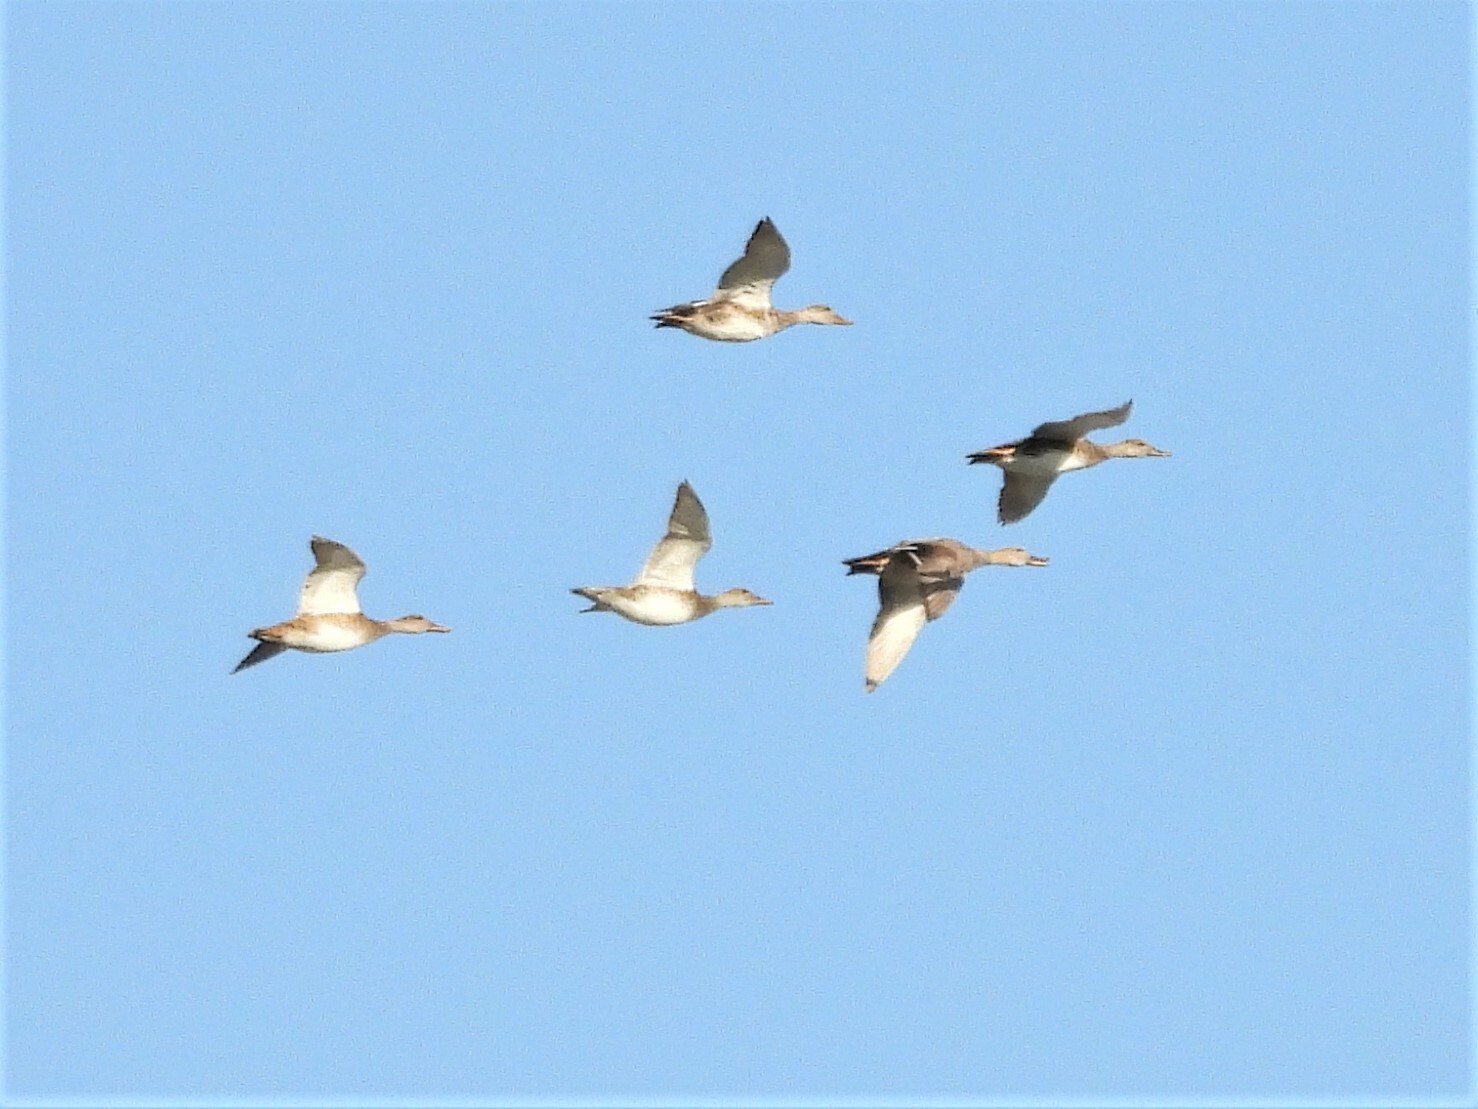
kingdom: Animalia
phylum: Chordata
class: Aves
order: Anseriformes
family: Anatidae
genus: Mareca
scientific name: Mareca strepera
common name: Gadwall
